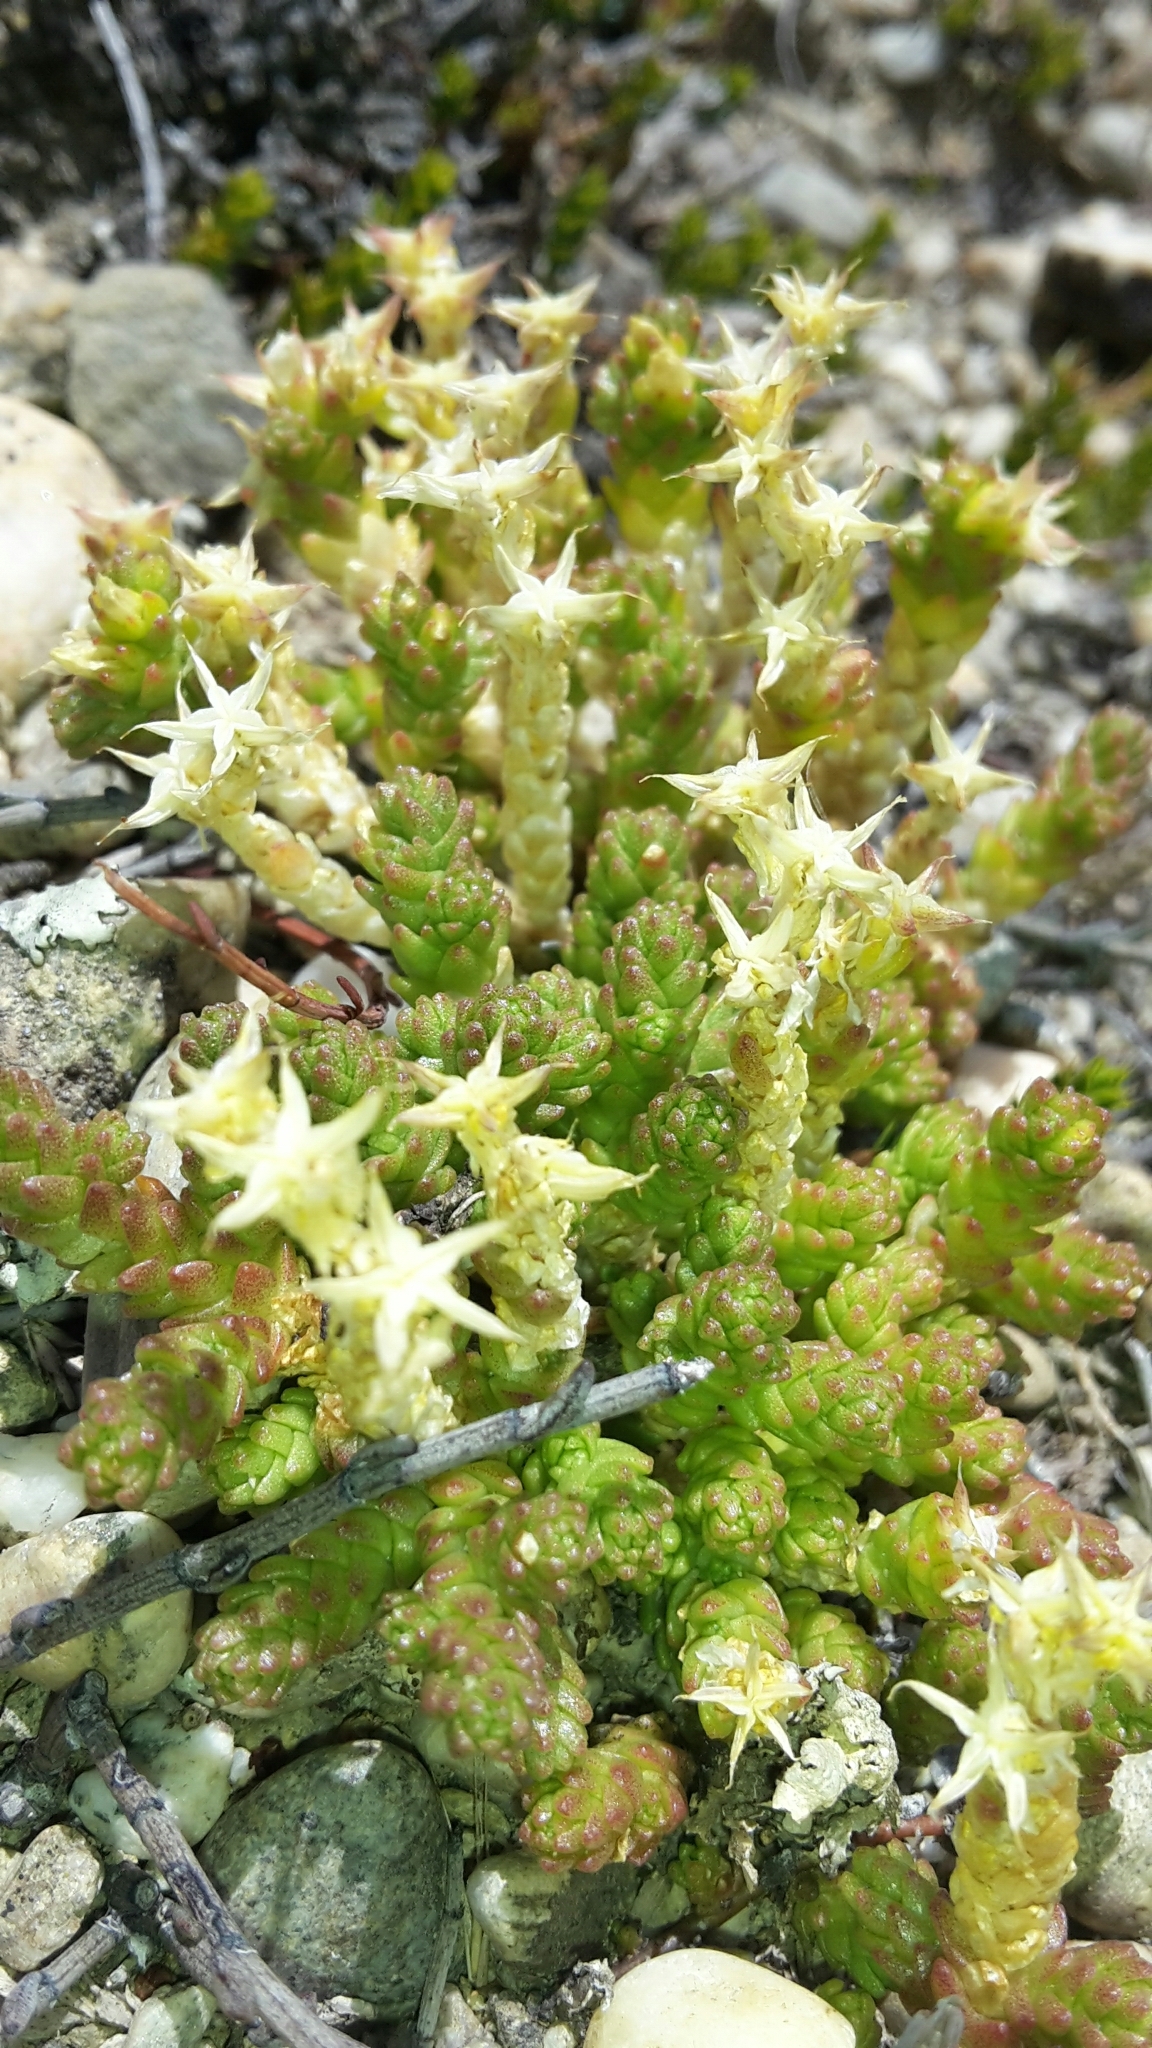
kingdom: Plantae
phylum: Tracheophyta
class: Magnoliopsida
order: Saxifragales
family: Crassulaceae
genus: Sedum
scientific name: Sedum acre
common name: Biting stonecrop
